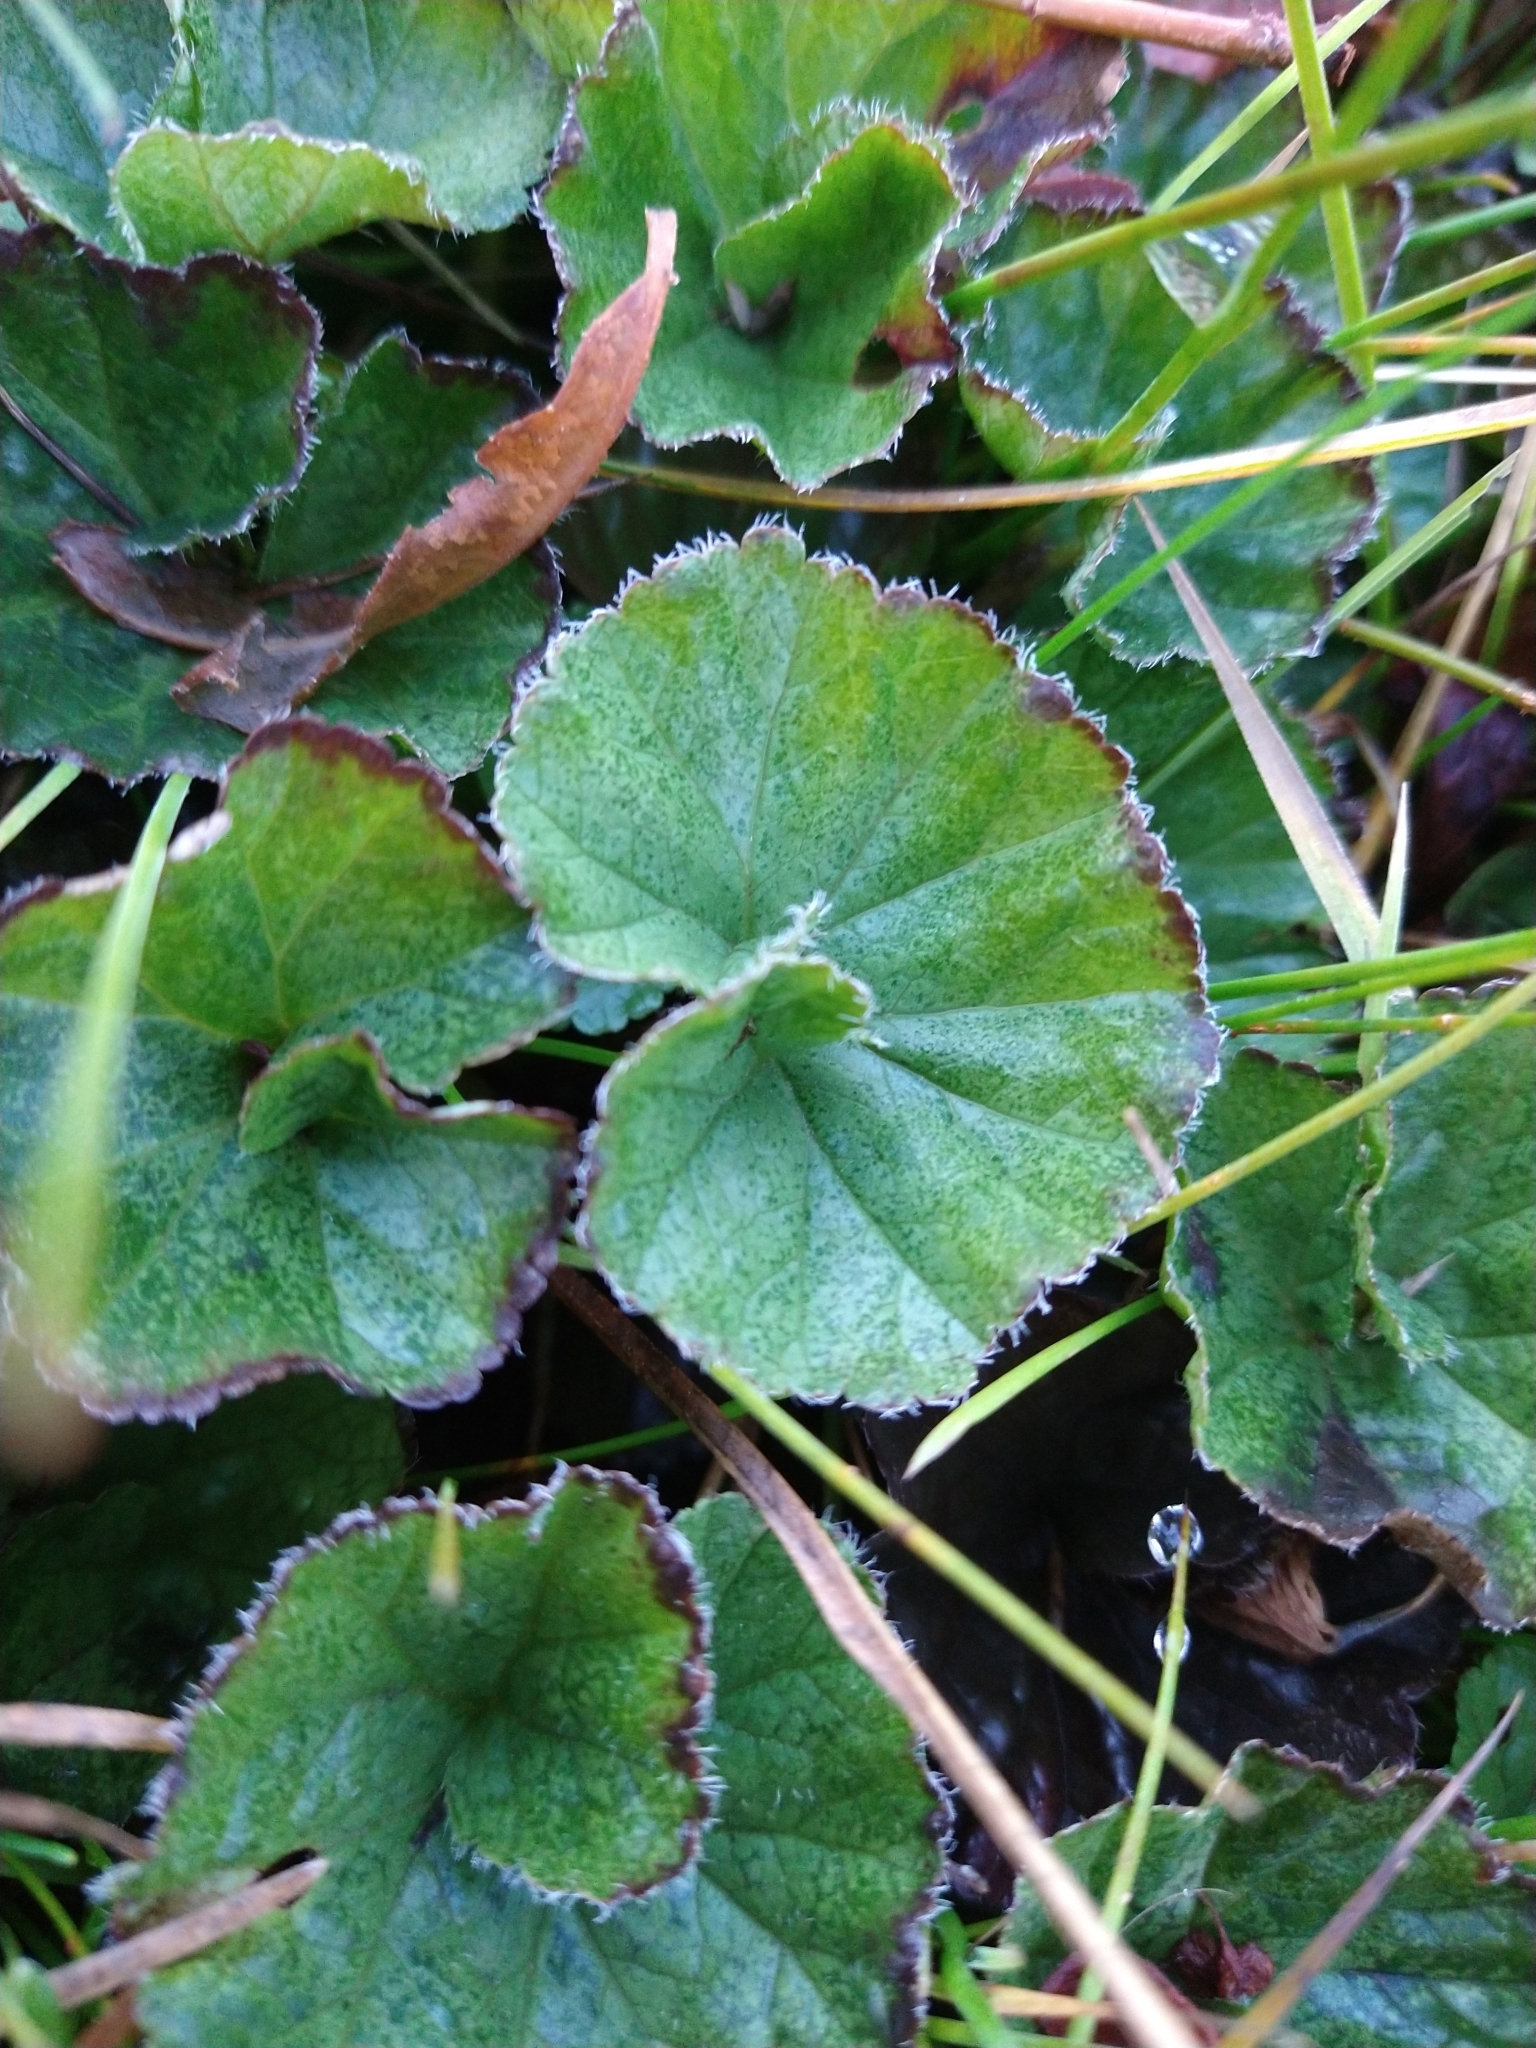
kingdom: Plantae
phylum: Tracheophyta
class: Magnoliopsida
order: Gunnerales
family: Gunneraceae
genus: Gunnera
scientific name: Gunnera magellanica
